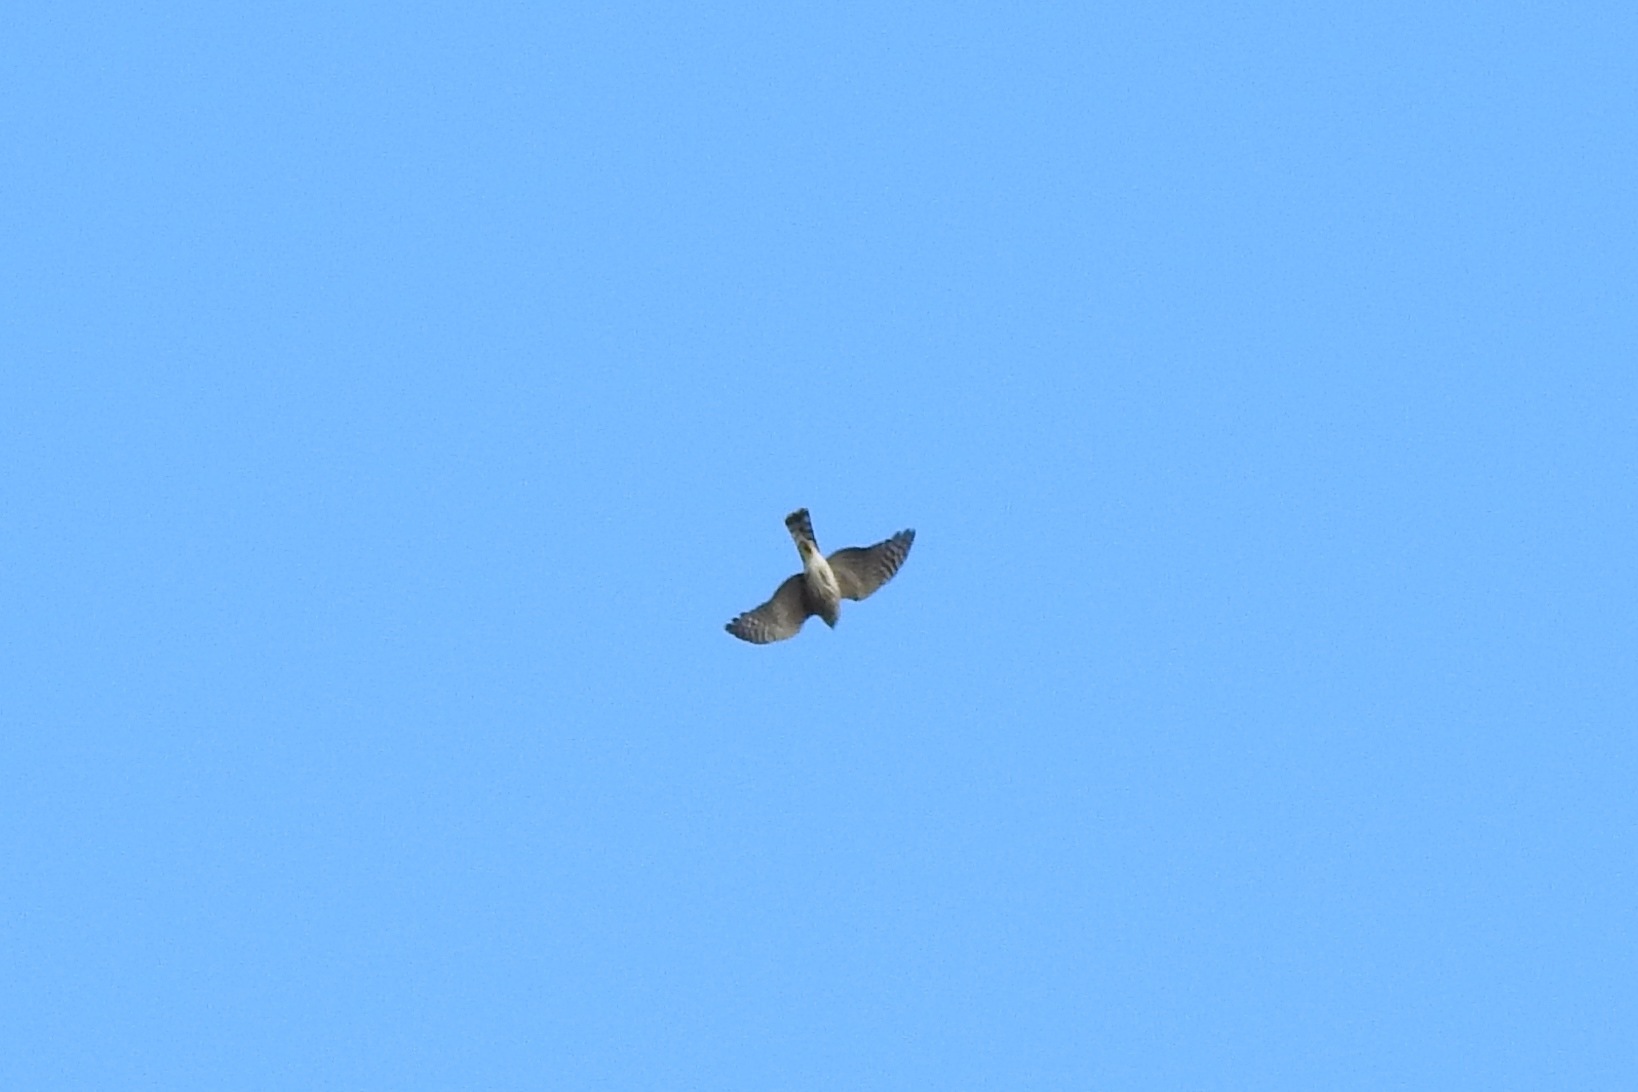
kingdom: Animalia
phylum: Chordata
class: Aves
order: Accipitriformes
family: Accipitridae
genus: Accipiter
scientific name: Accipiter striatus
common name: Sharp-shinned hawk
